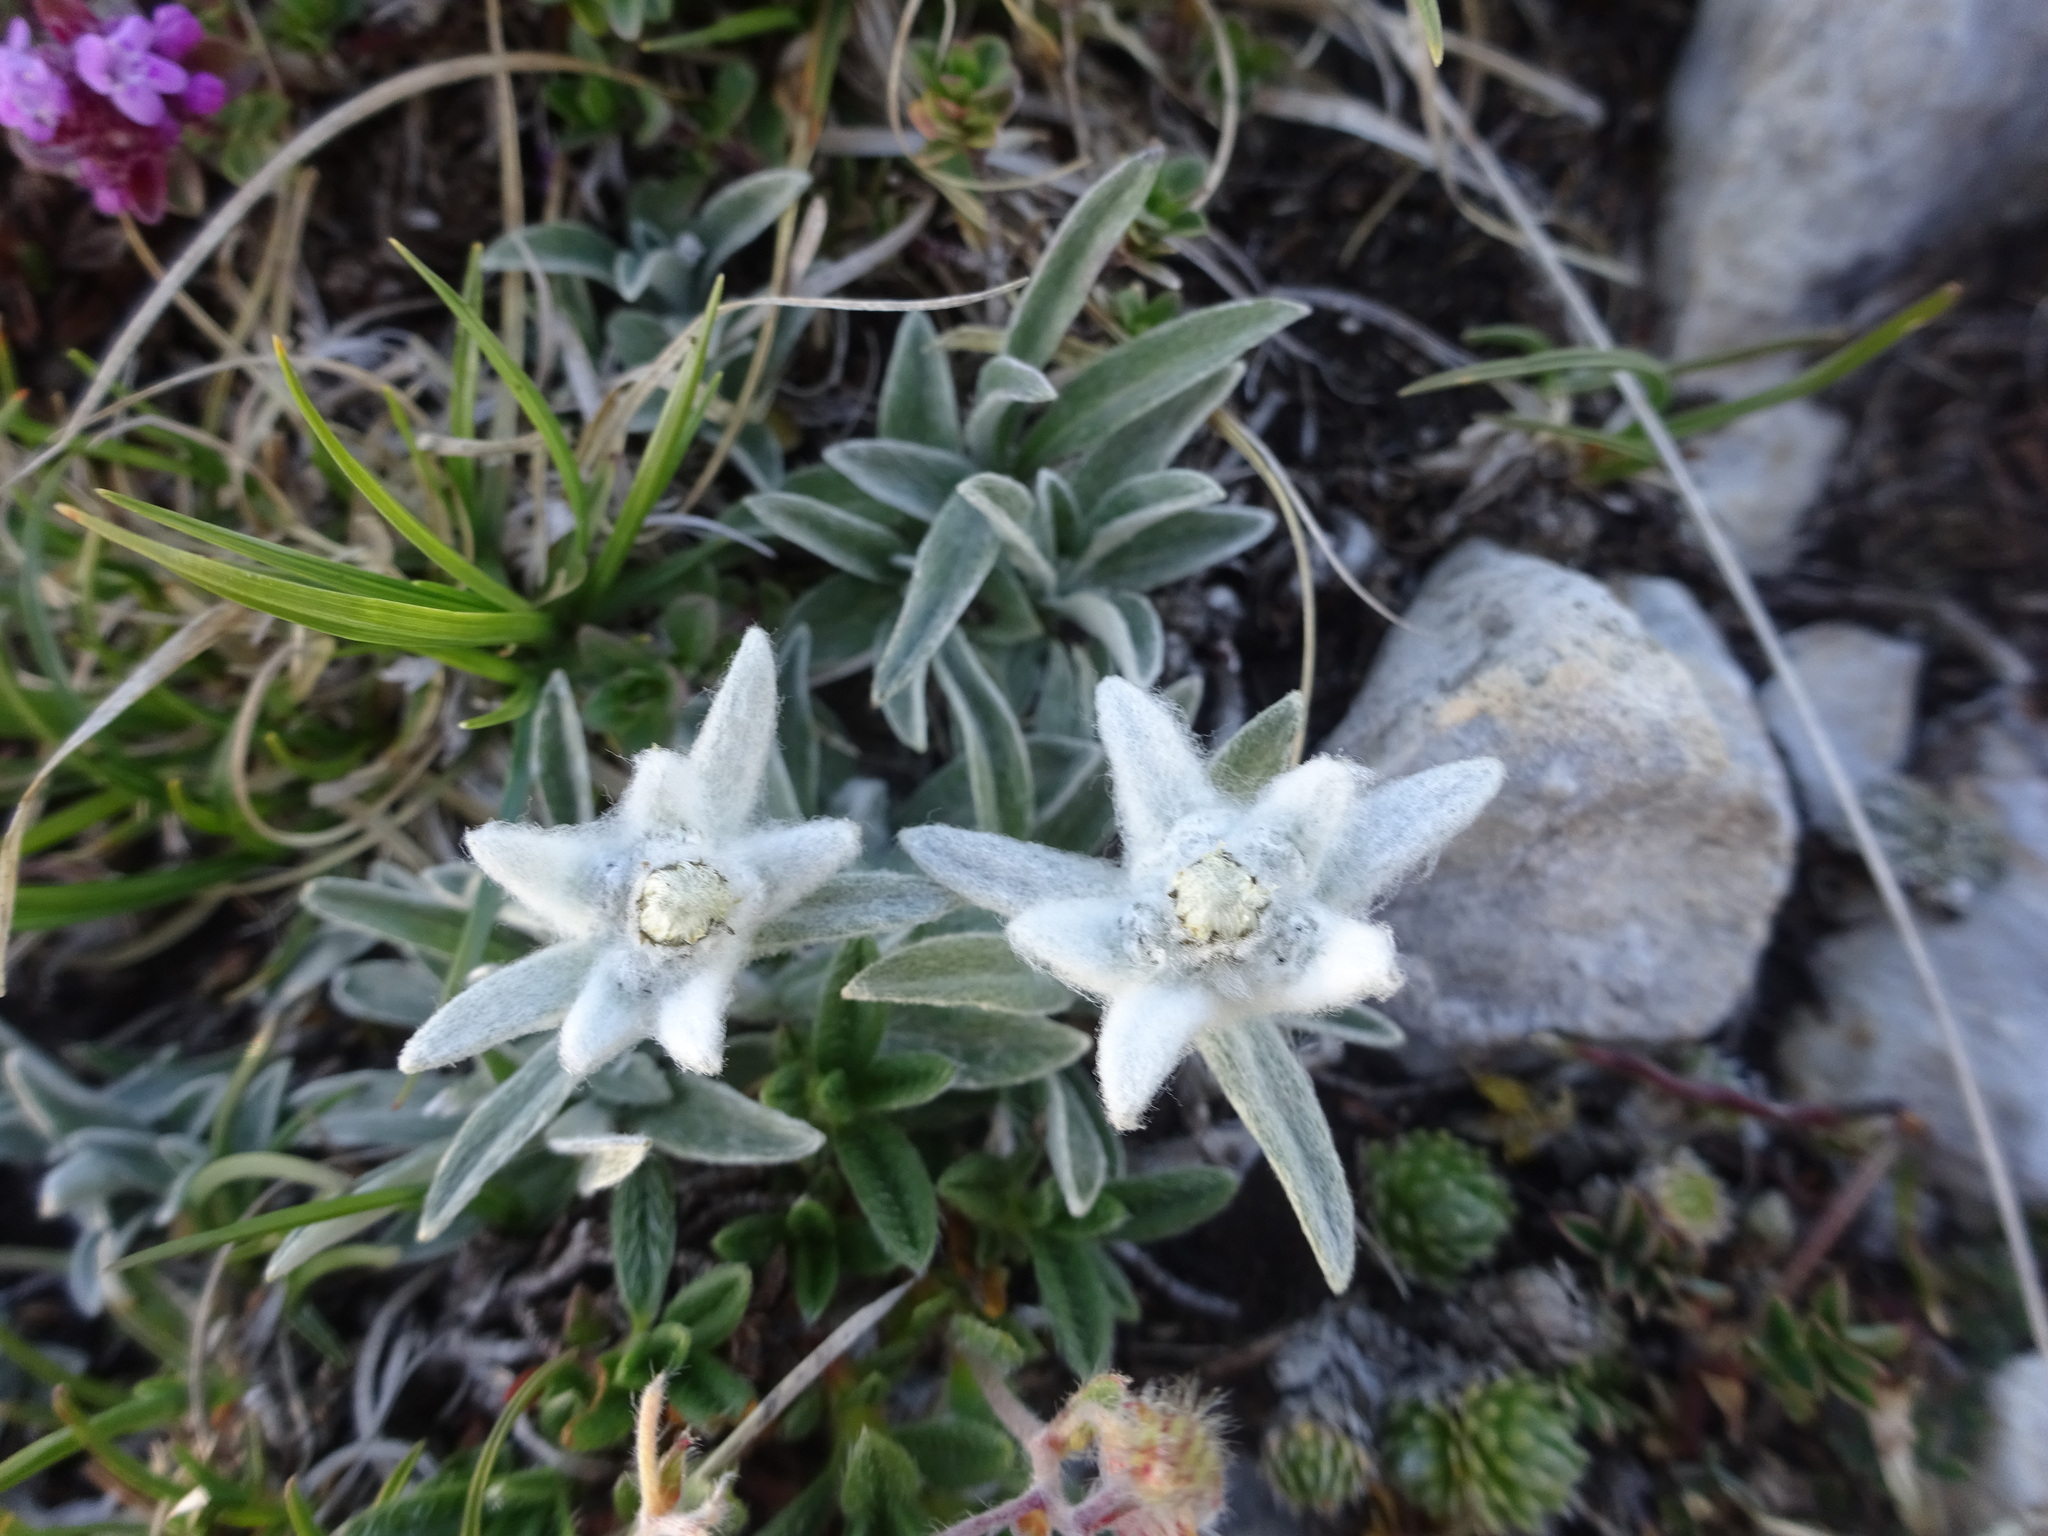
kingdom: Plantae
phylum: Tracheophyta
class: Magnoliopsida
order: Asterales
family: Asteraceae
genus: Leontopodium
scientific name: Leontopodium nivale
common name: Edelweiss
